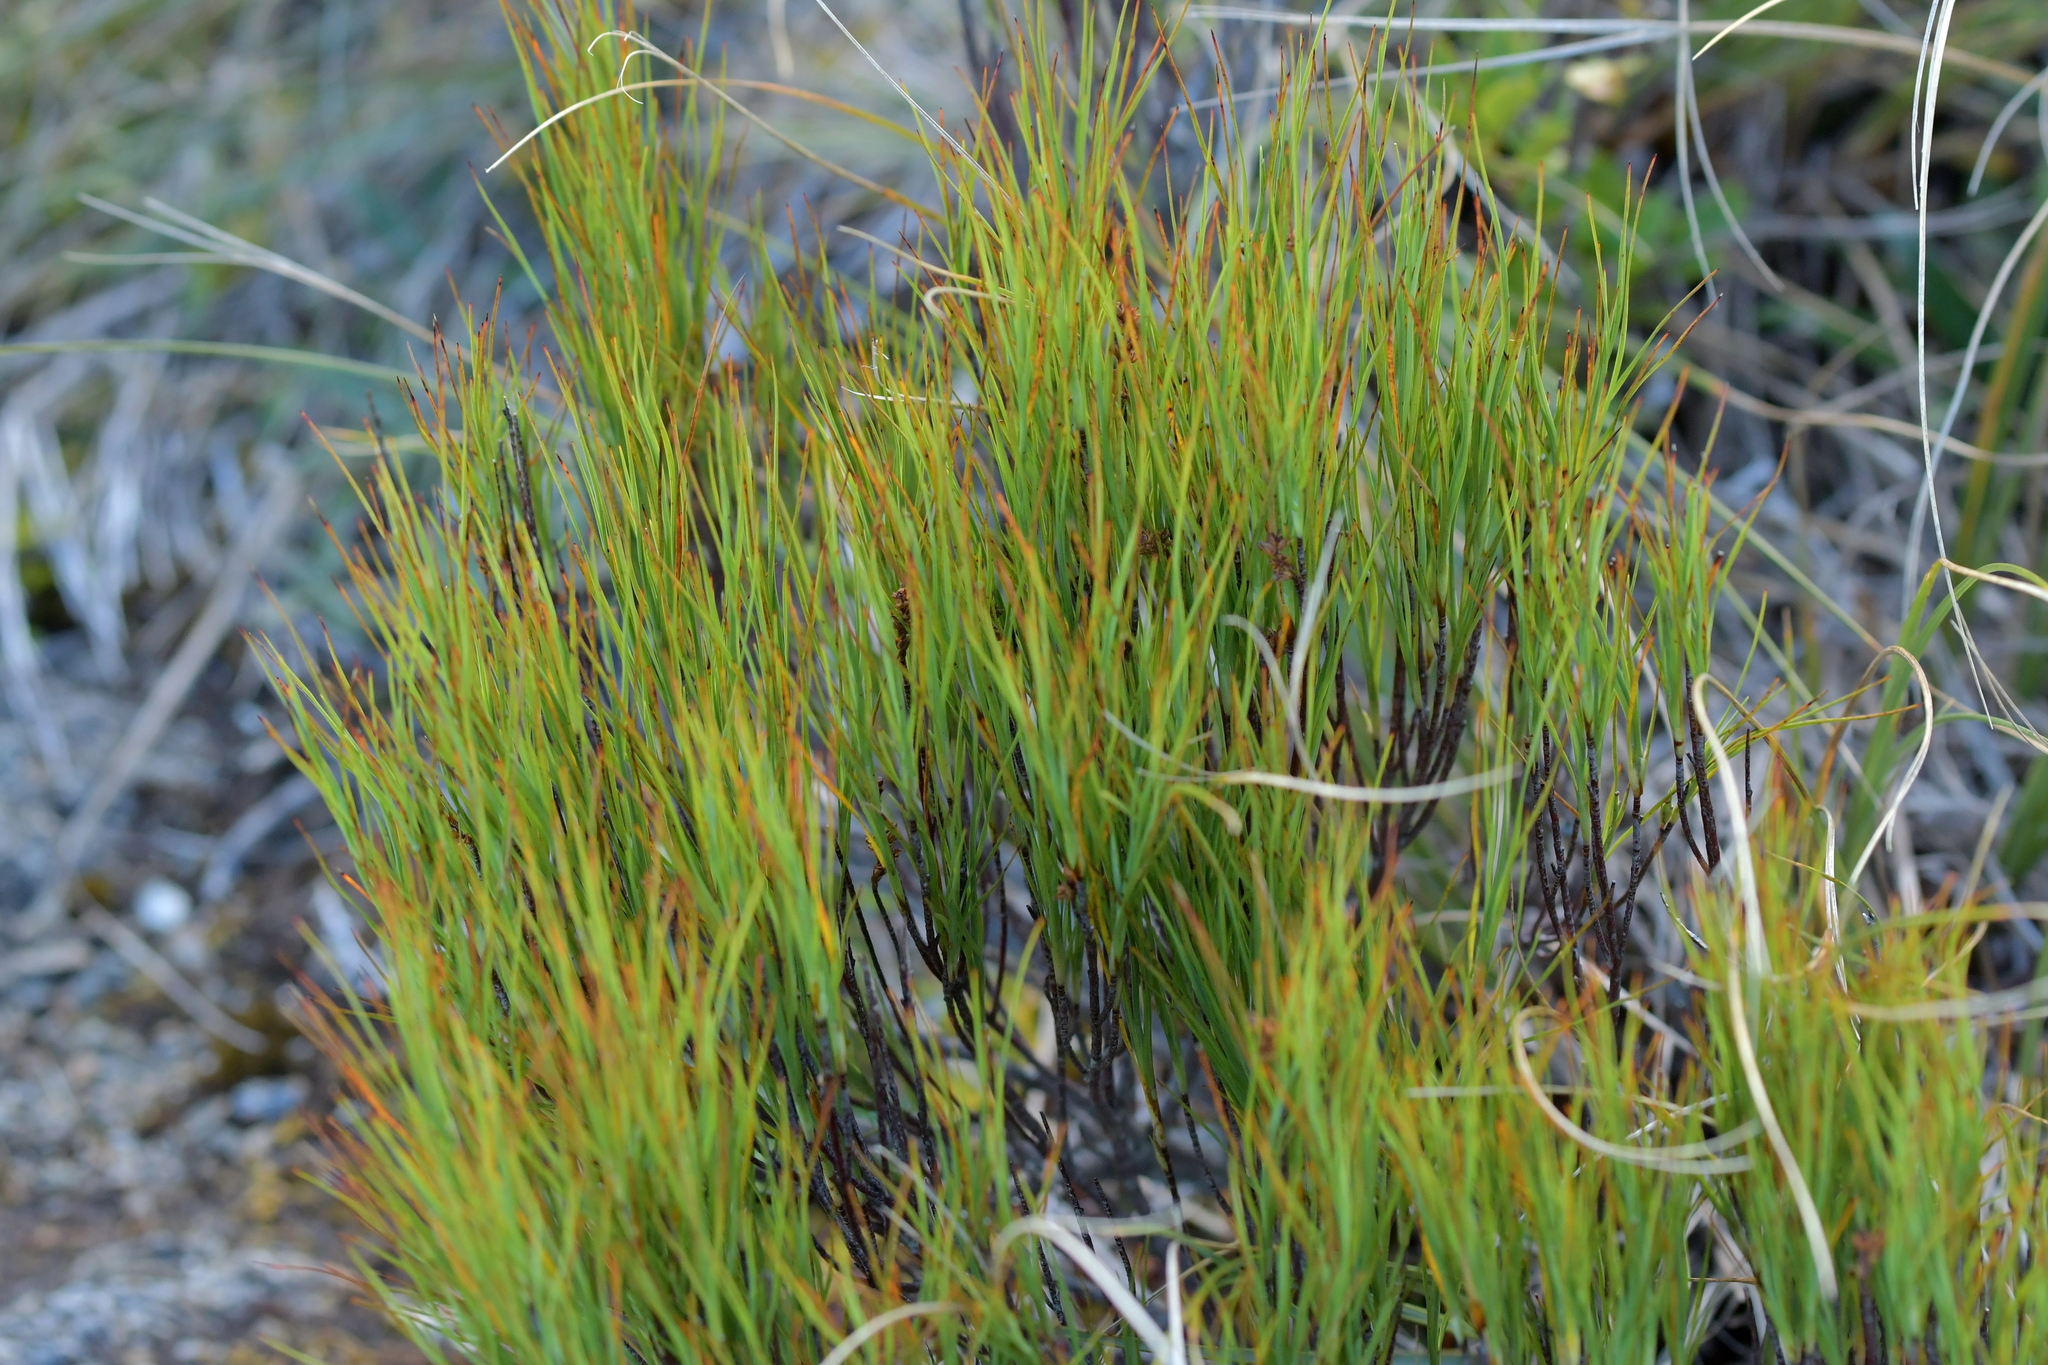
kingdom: Plantae
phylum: Tracheophyta
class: Magnoliopsida
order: Ericales
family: Ericaceae
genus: Dracophyllum
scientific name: Dracophyllum filifolium
